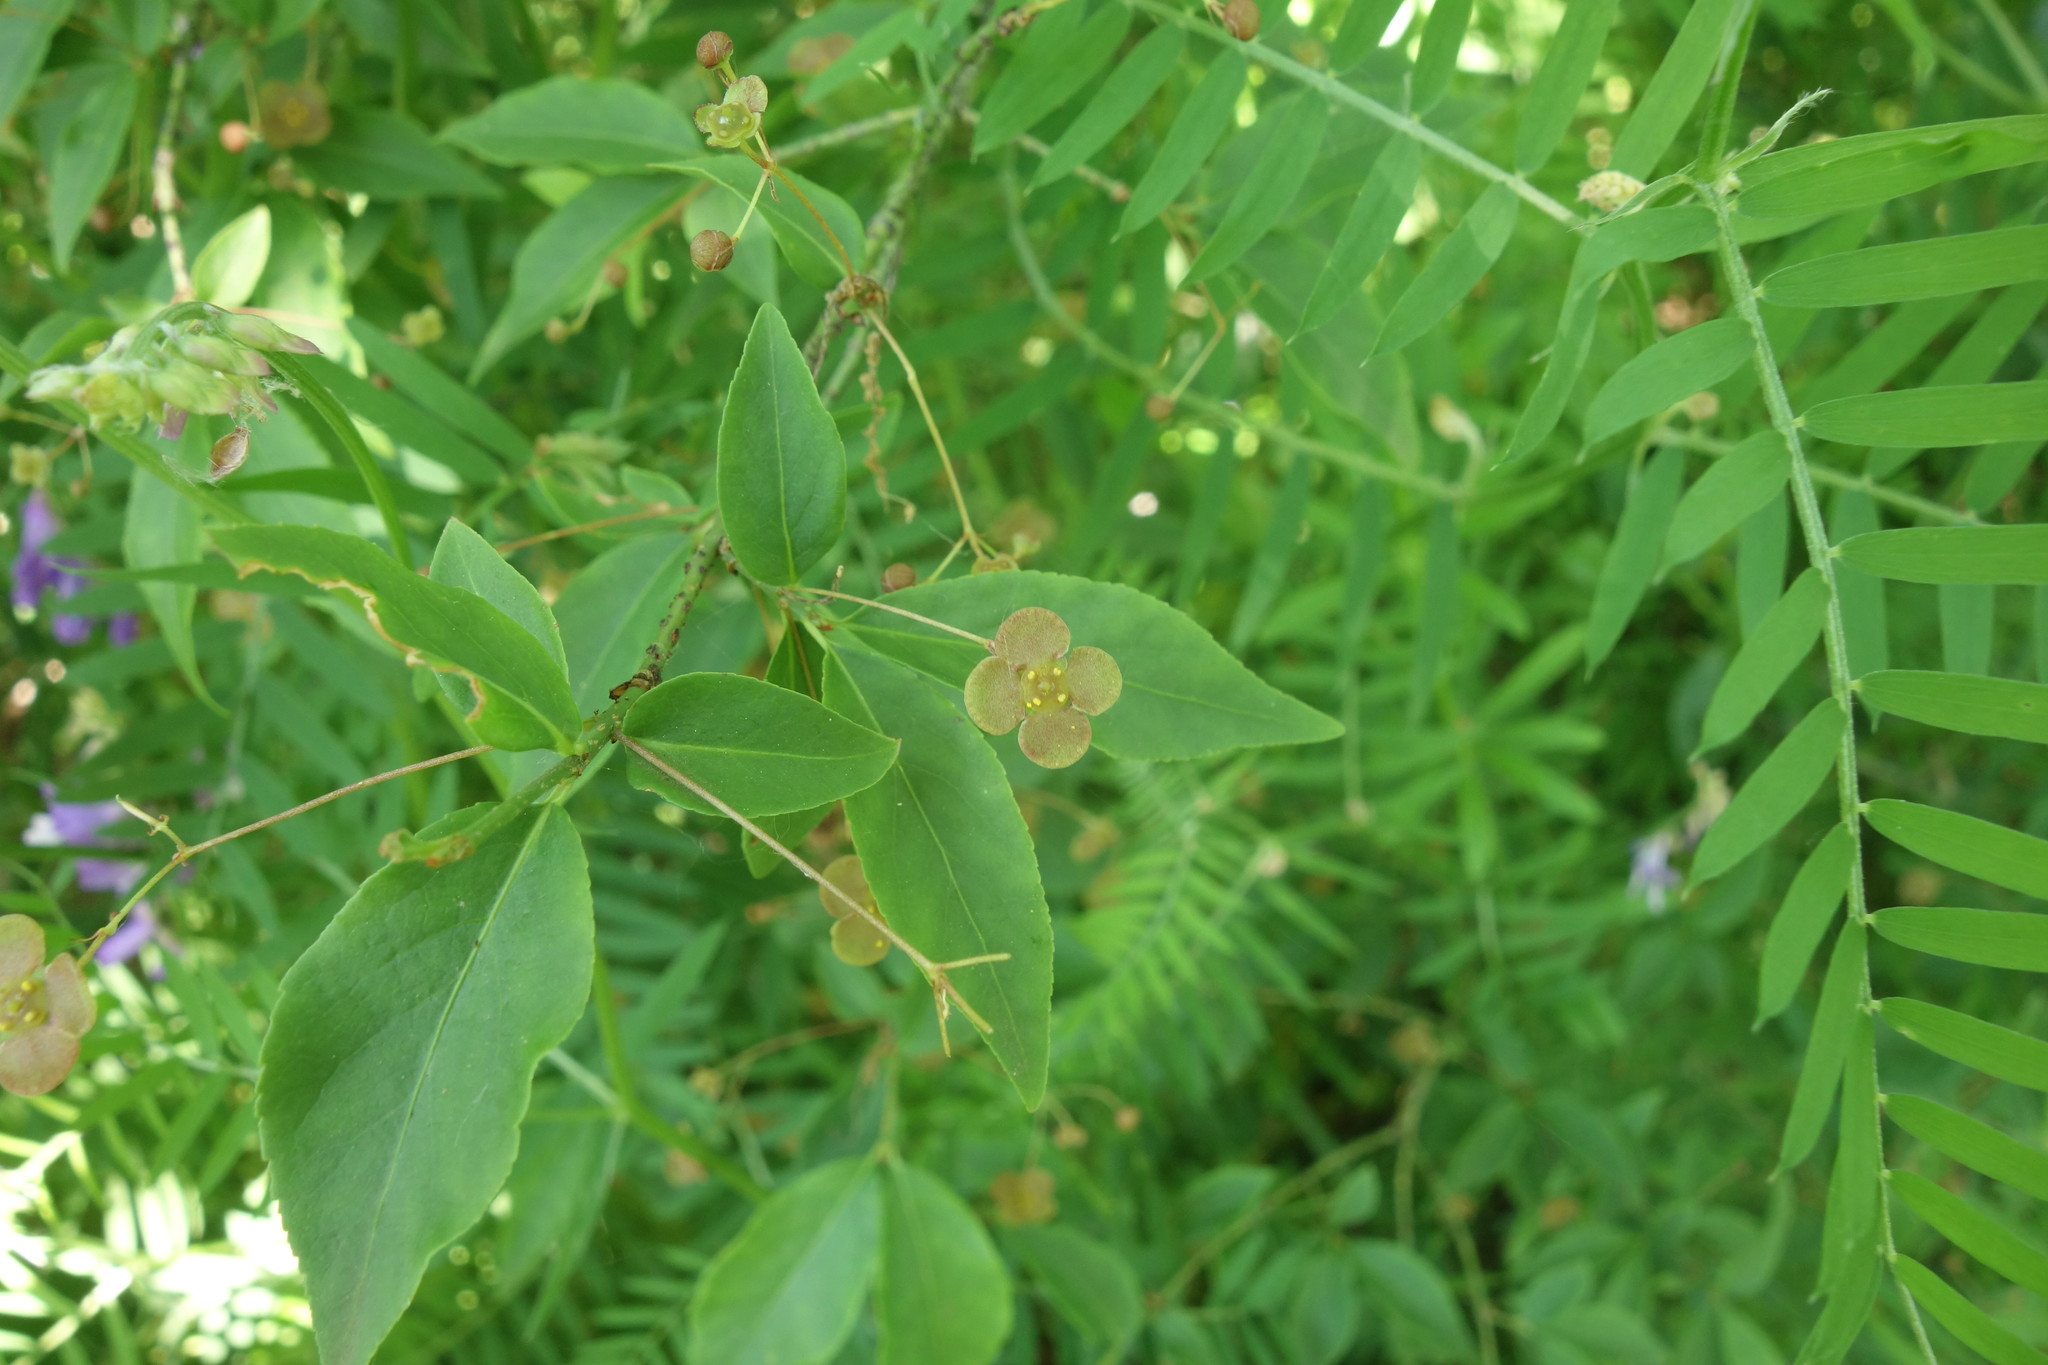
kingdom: Plantae
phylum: Tracheophyta
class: Magnoliopsida
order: Celastrales
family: Celastraceae
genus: Euonymus
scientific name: Euonymus verrucosus
